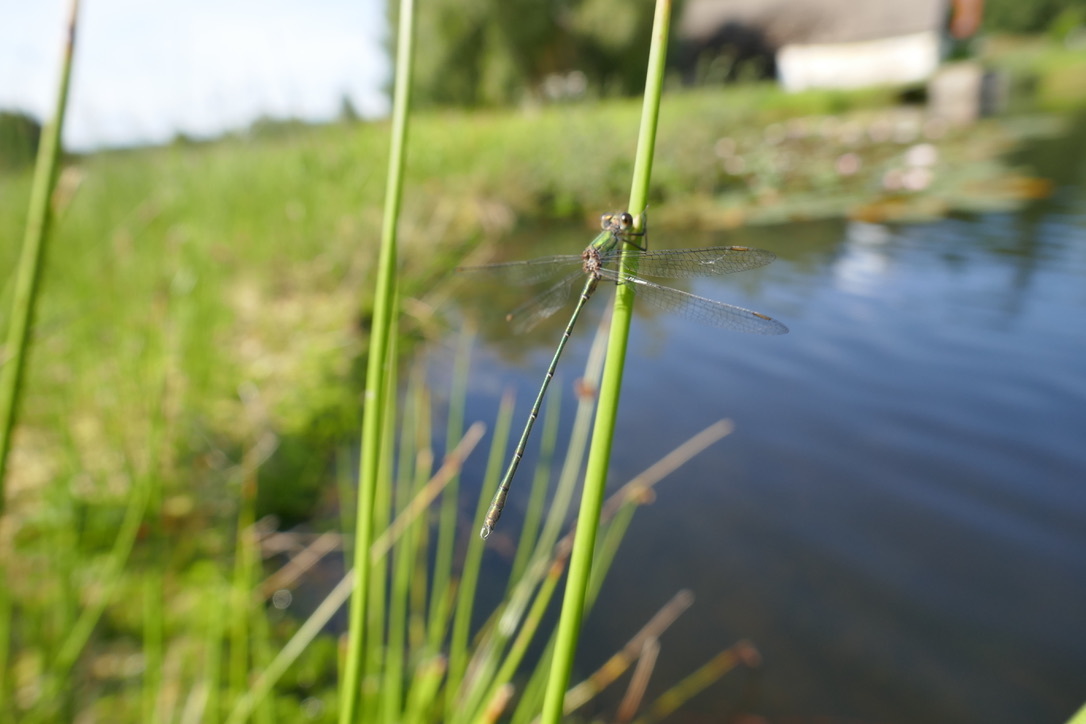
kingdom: Animalia
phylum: Arthropoda
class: Insecta
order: Odonata
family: Lestidae
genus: Chalcolestes
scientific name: Chalcolestes viridis
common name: Green emerald damselfly
